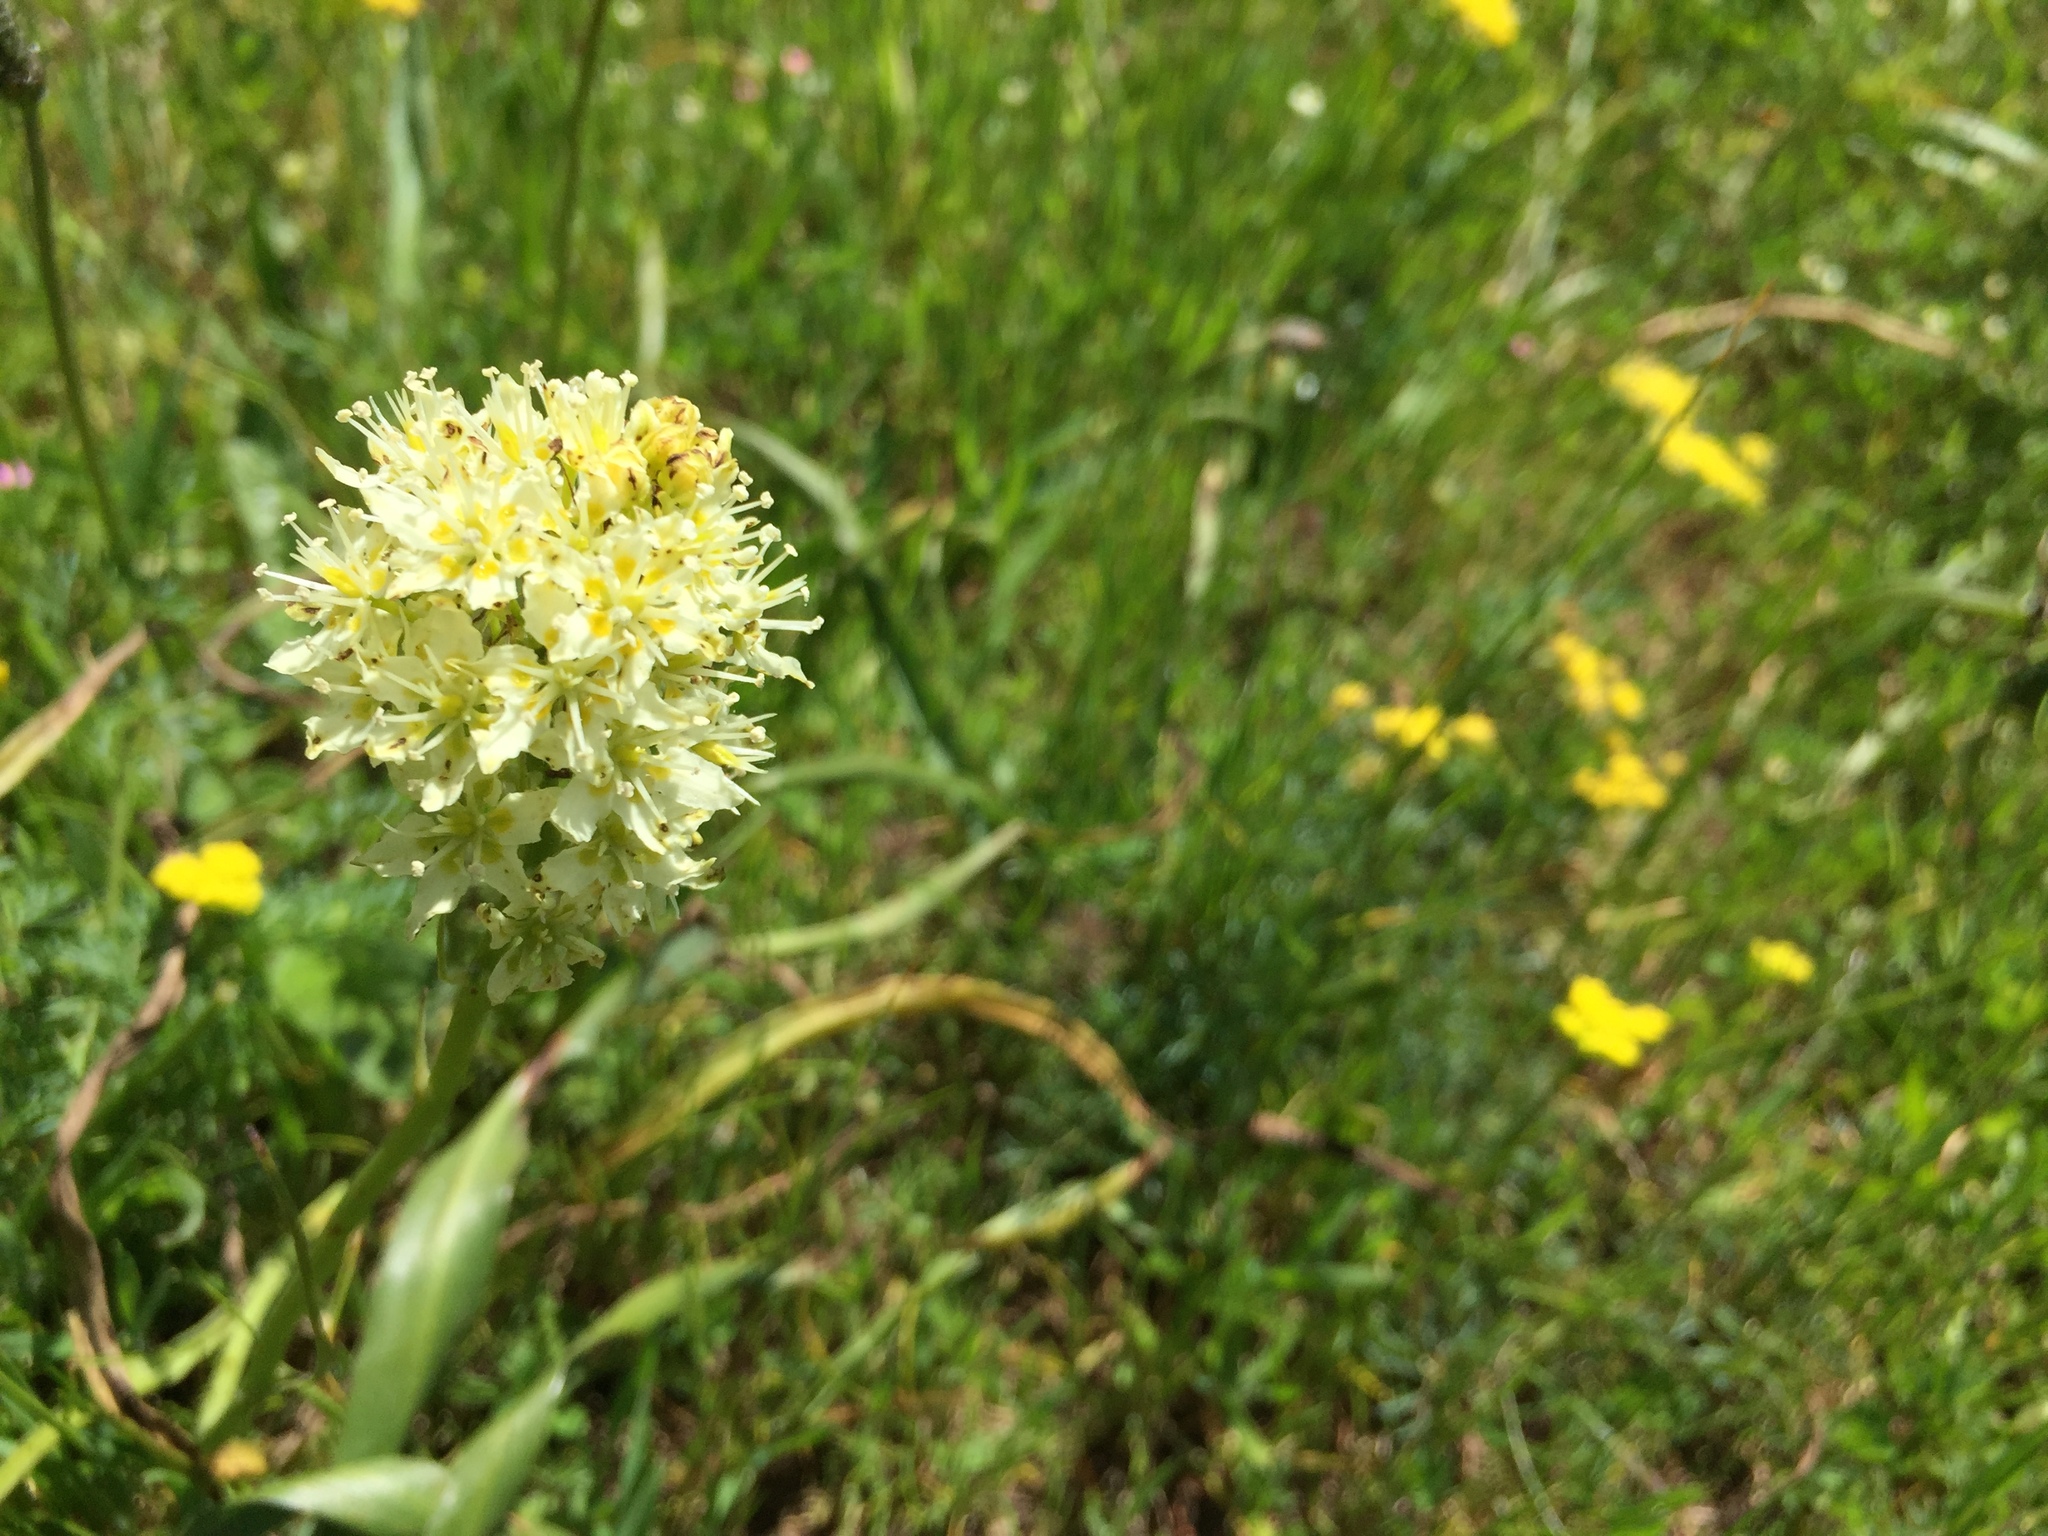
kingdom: Plantae
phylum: Tracheophyta
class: Liliopsida
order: Liliales
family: Melanthiaceae
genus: Toxicoscordion
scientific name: Toxicoscordion venenosum
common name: Meadow death camas
